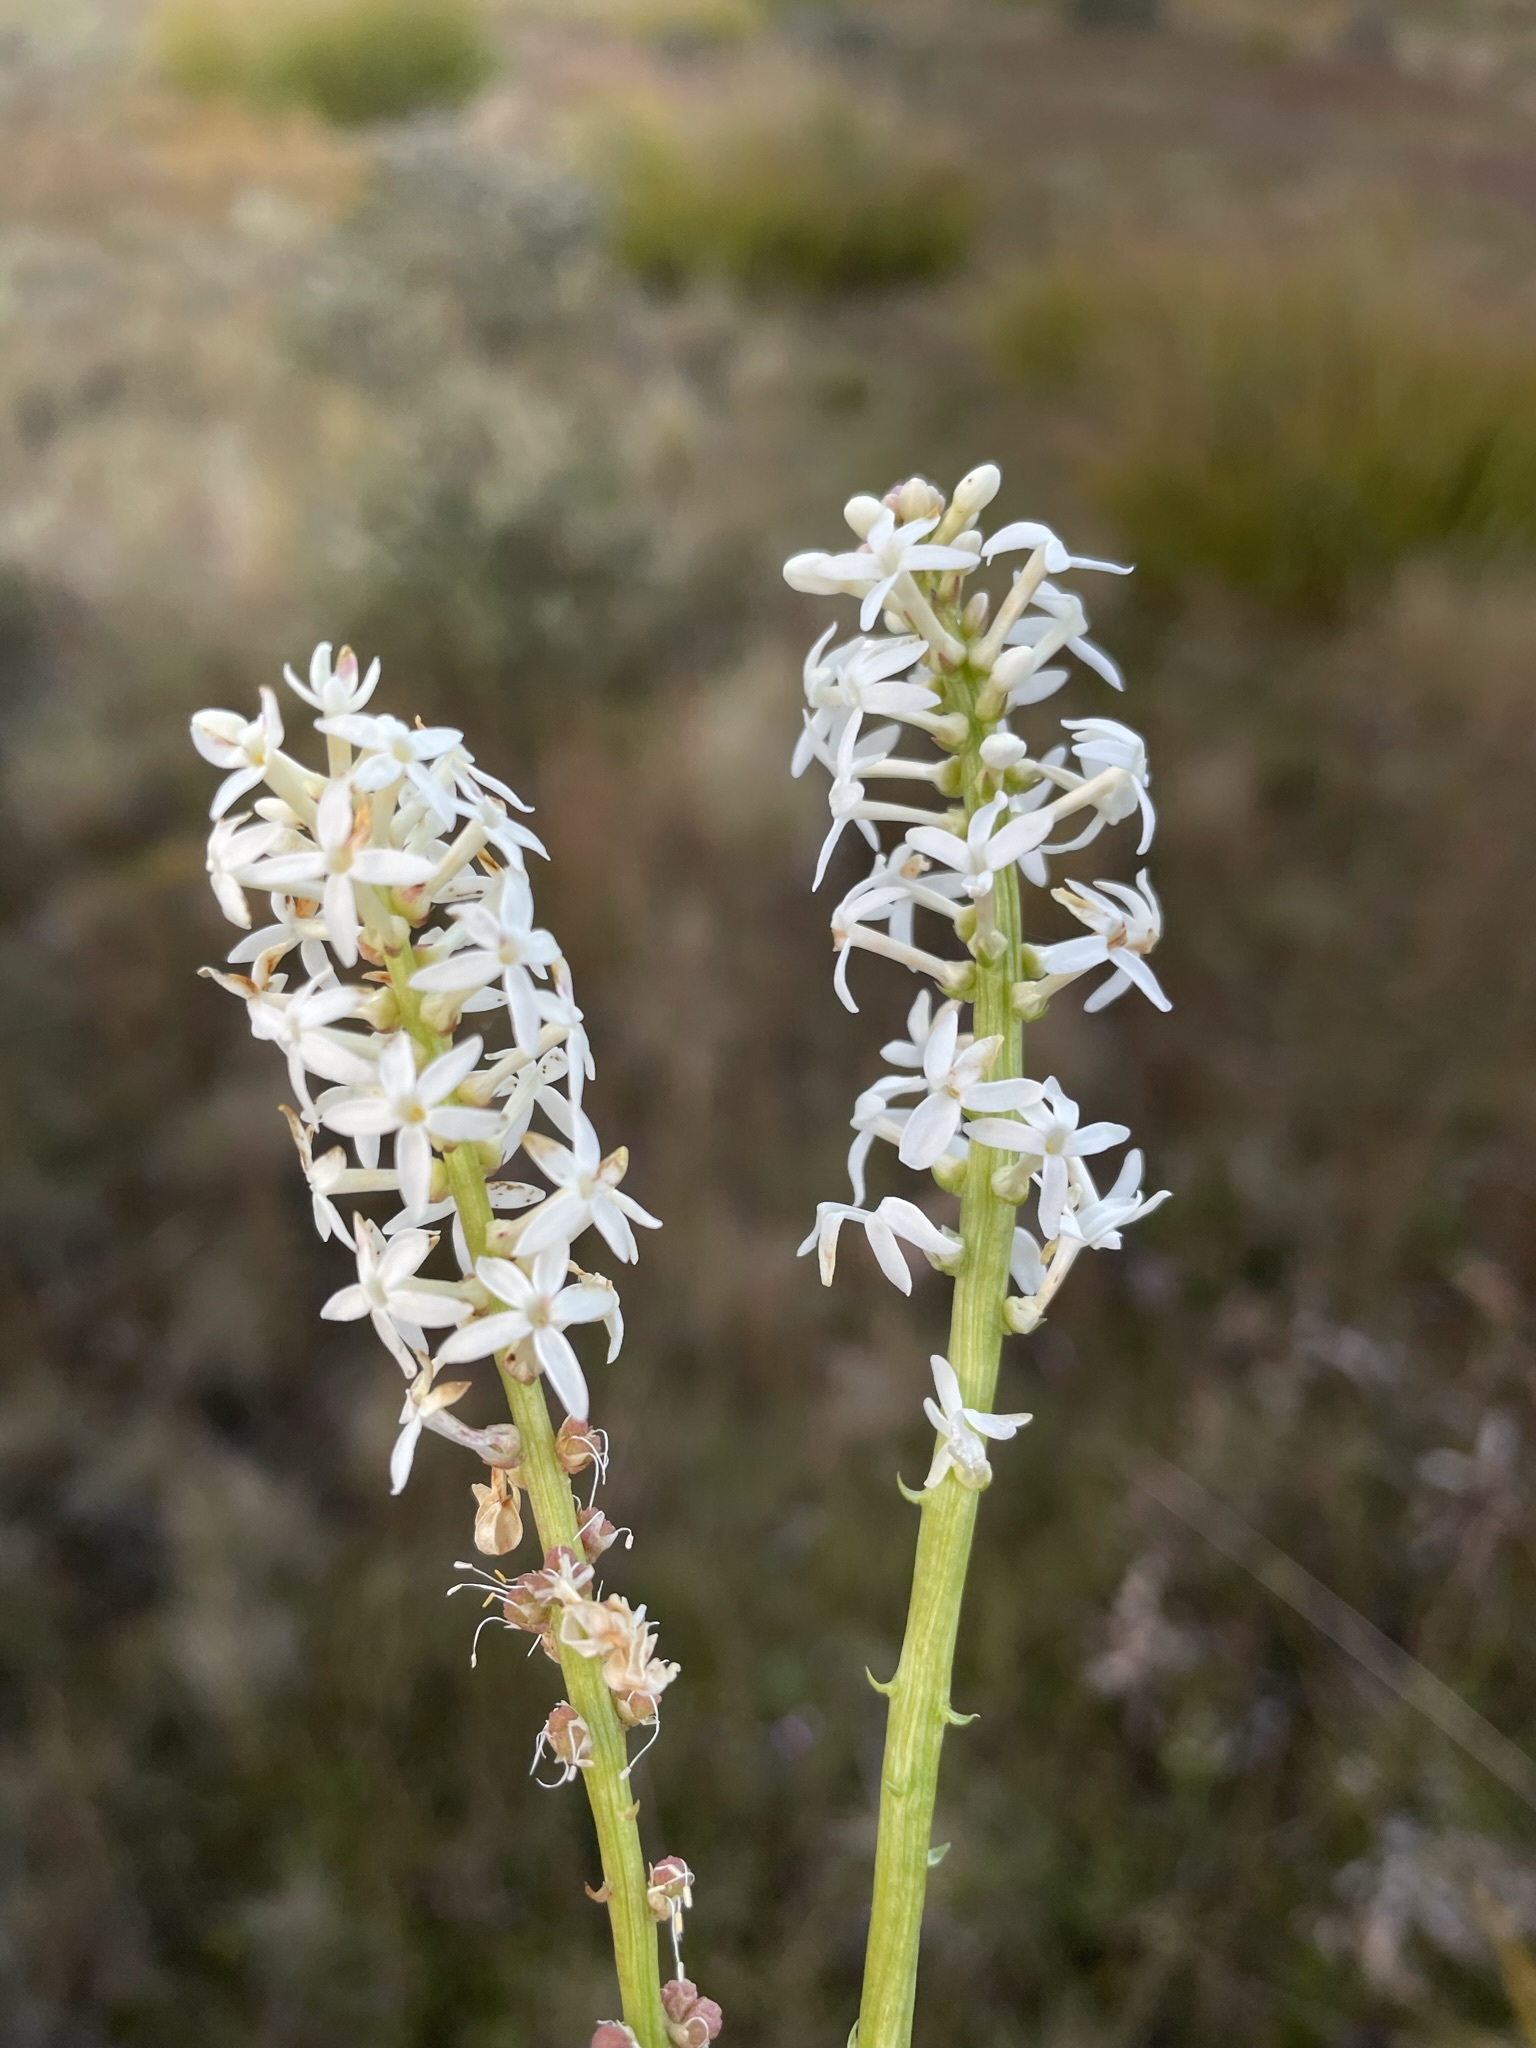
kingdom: Plantae
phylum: Tracheophyta
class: Magnoliopsida
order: Celastrales
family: Celastraceae
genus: Stackhousia
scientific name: Stackhousia monogyna
